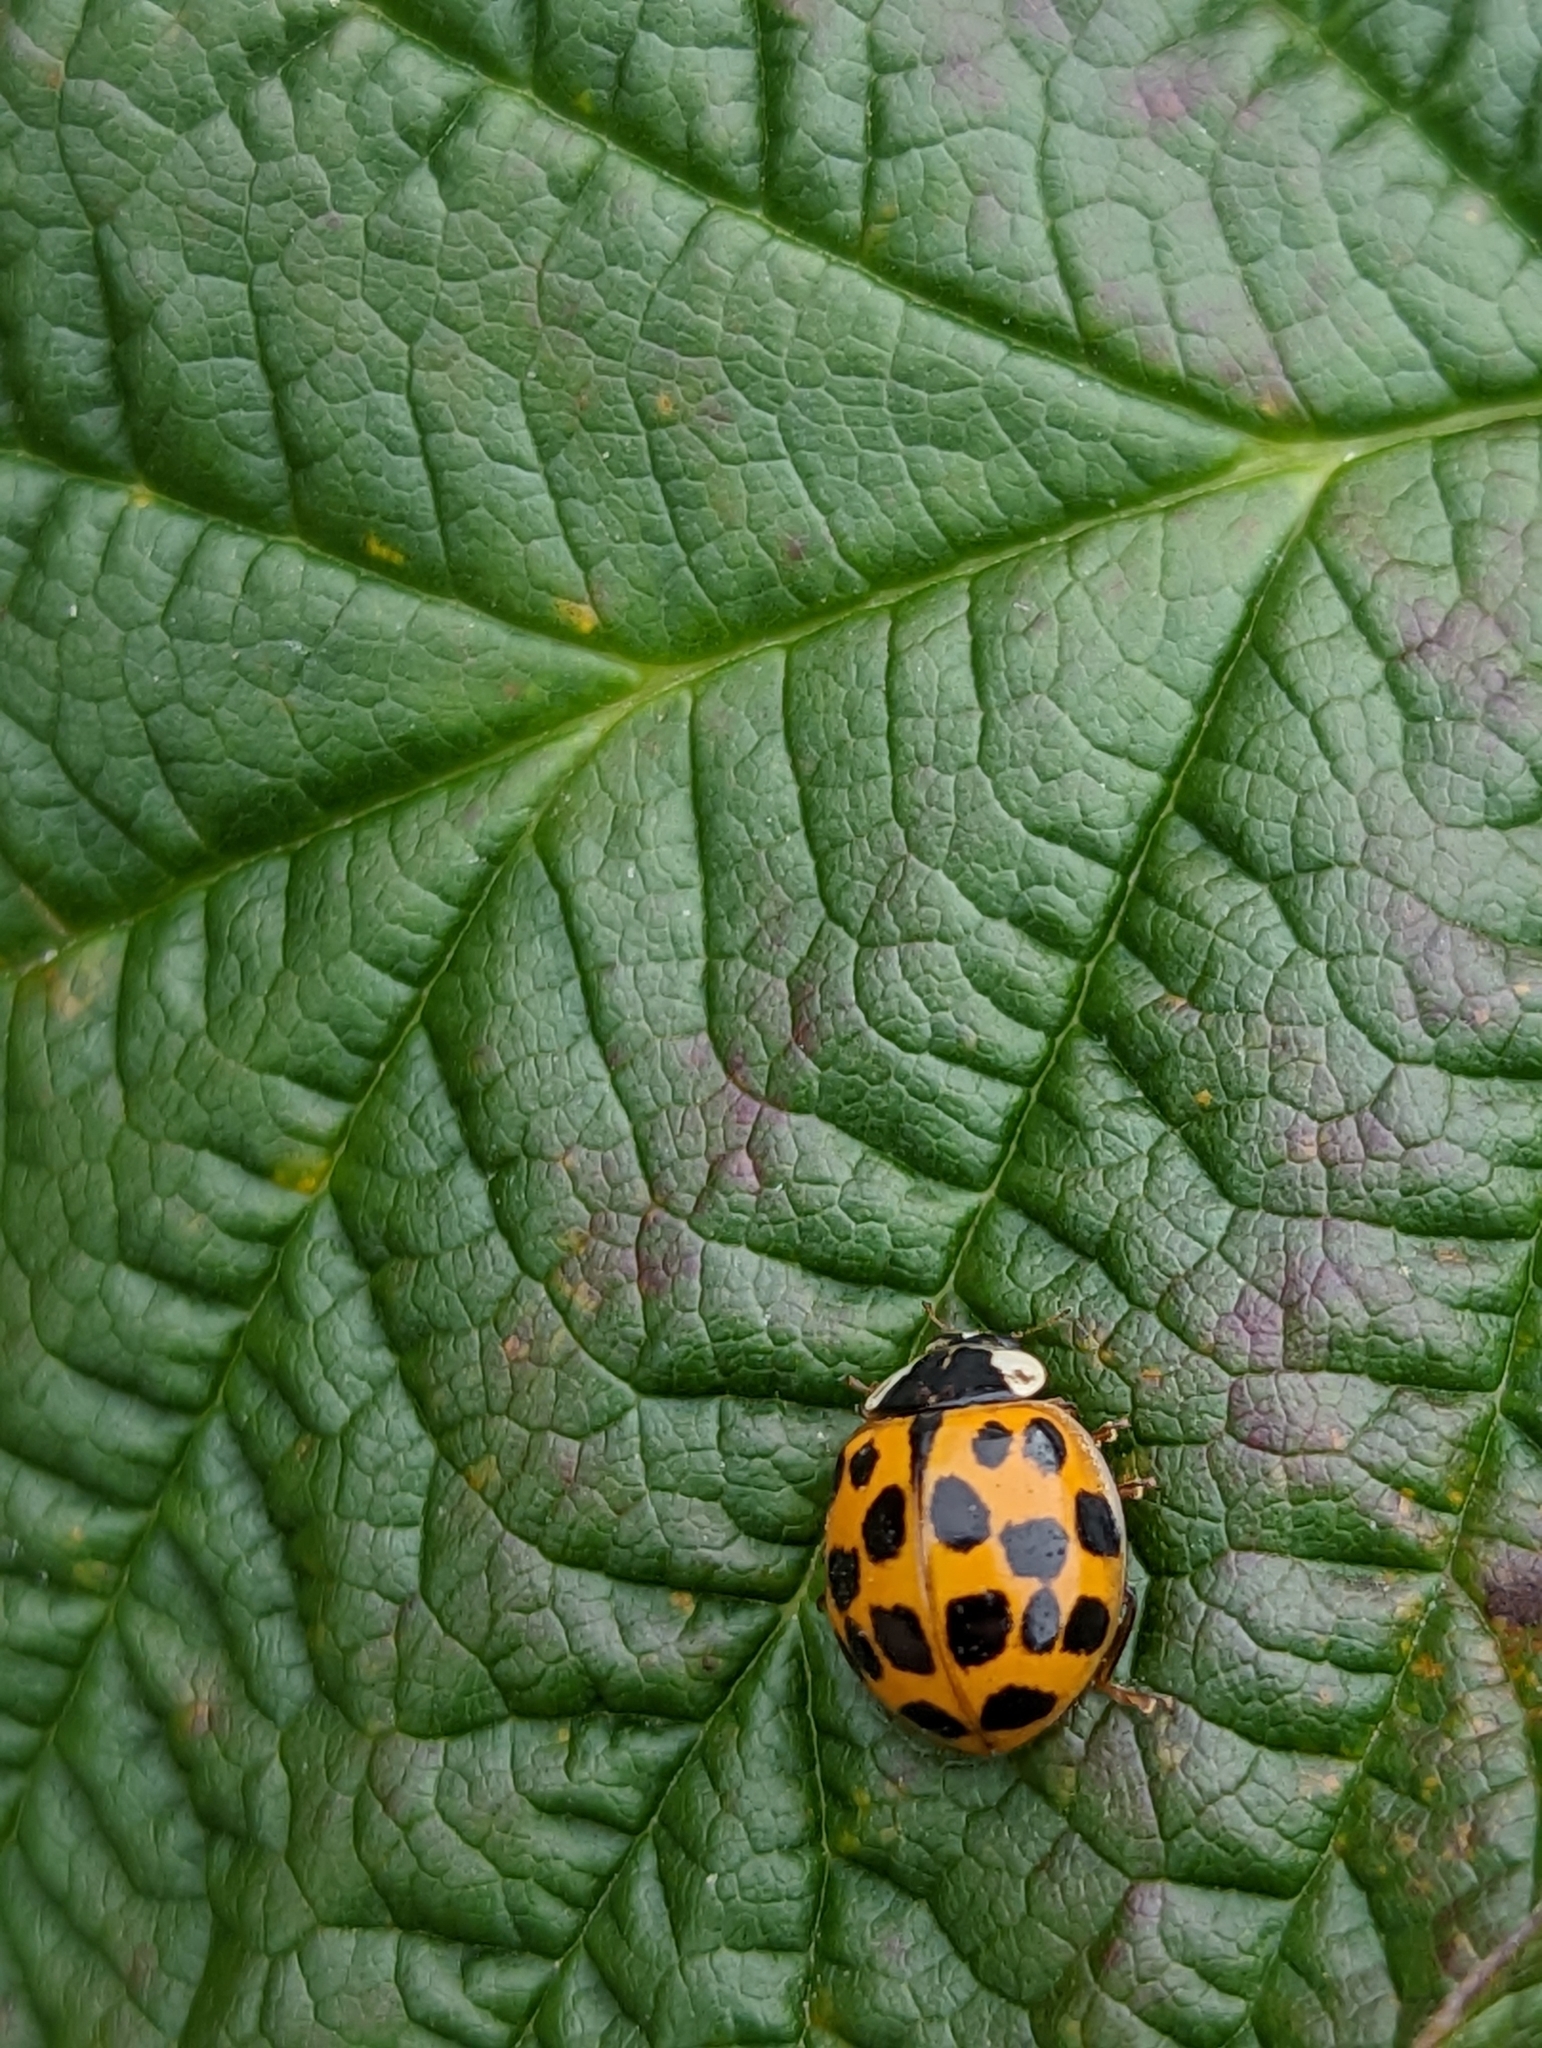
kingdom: Animalia
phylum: Arthropoda
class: Insecta
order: Coleoptera
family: Coccinellidae
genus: Harmonia
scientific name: Harmonia axyridis
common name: Harlequin ladybird
